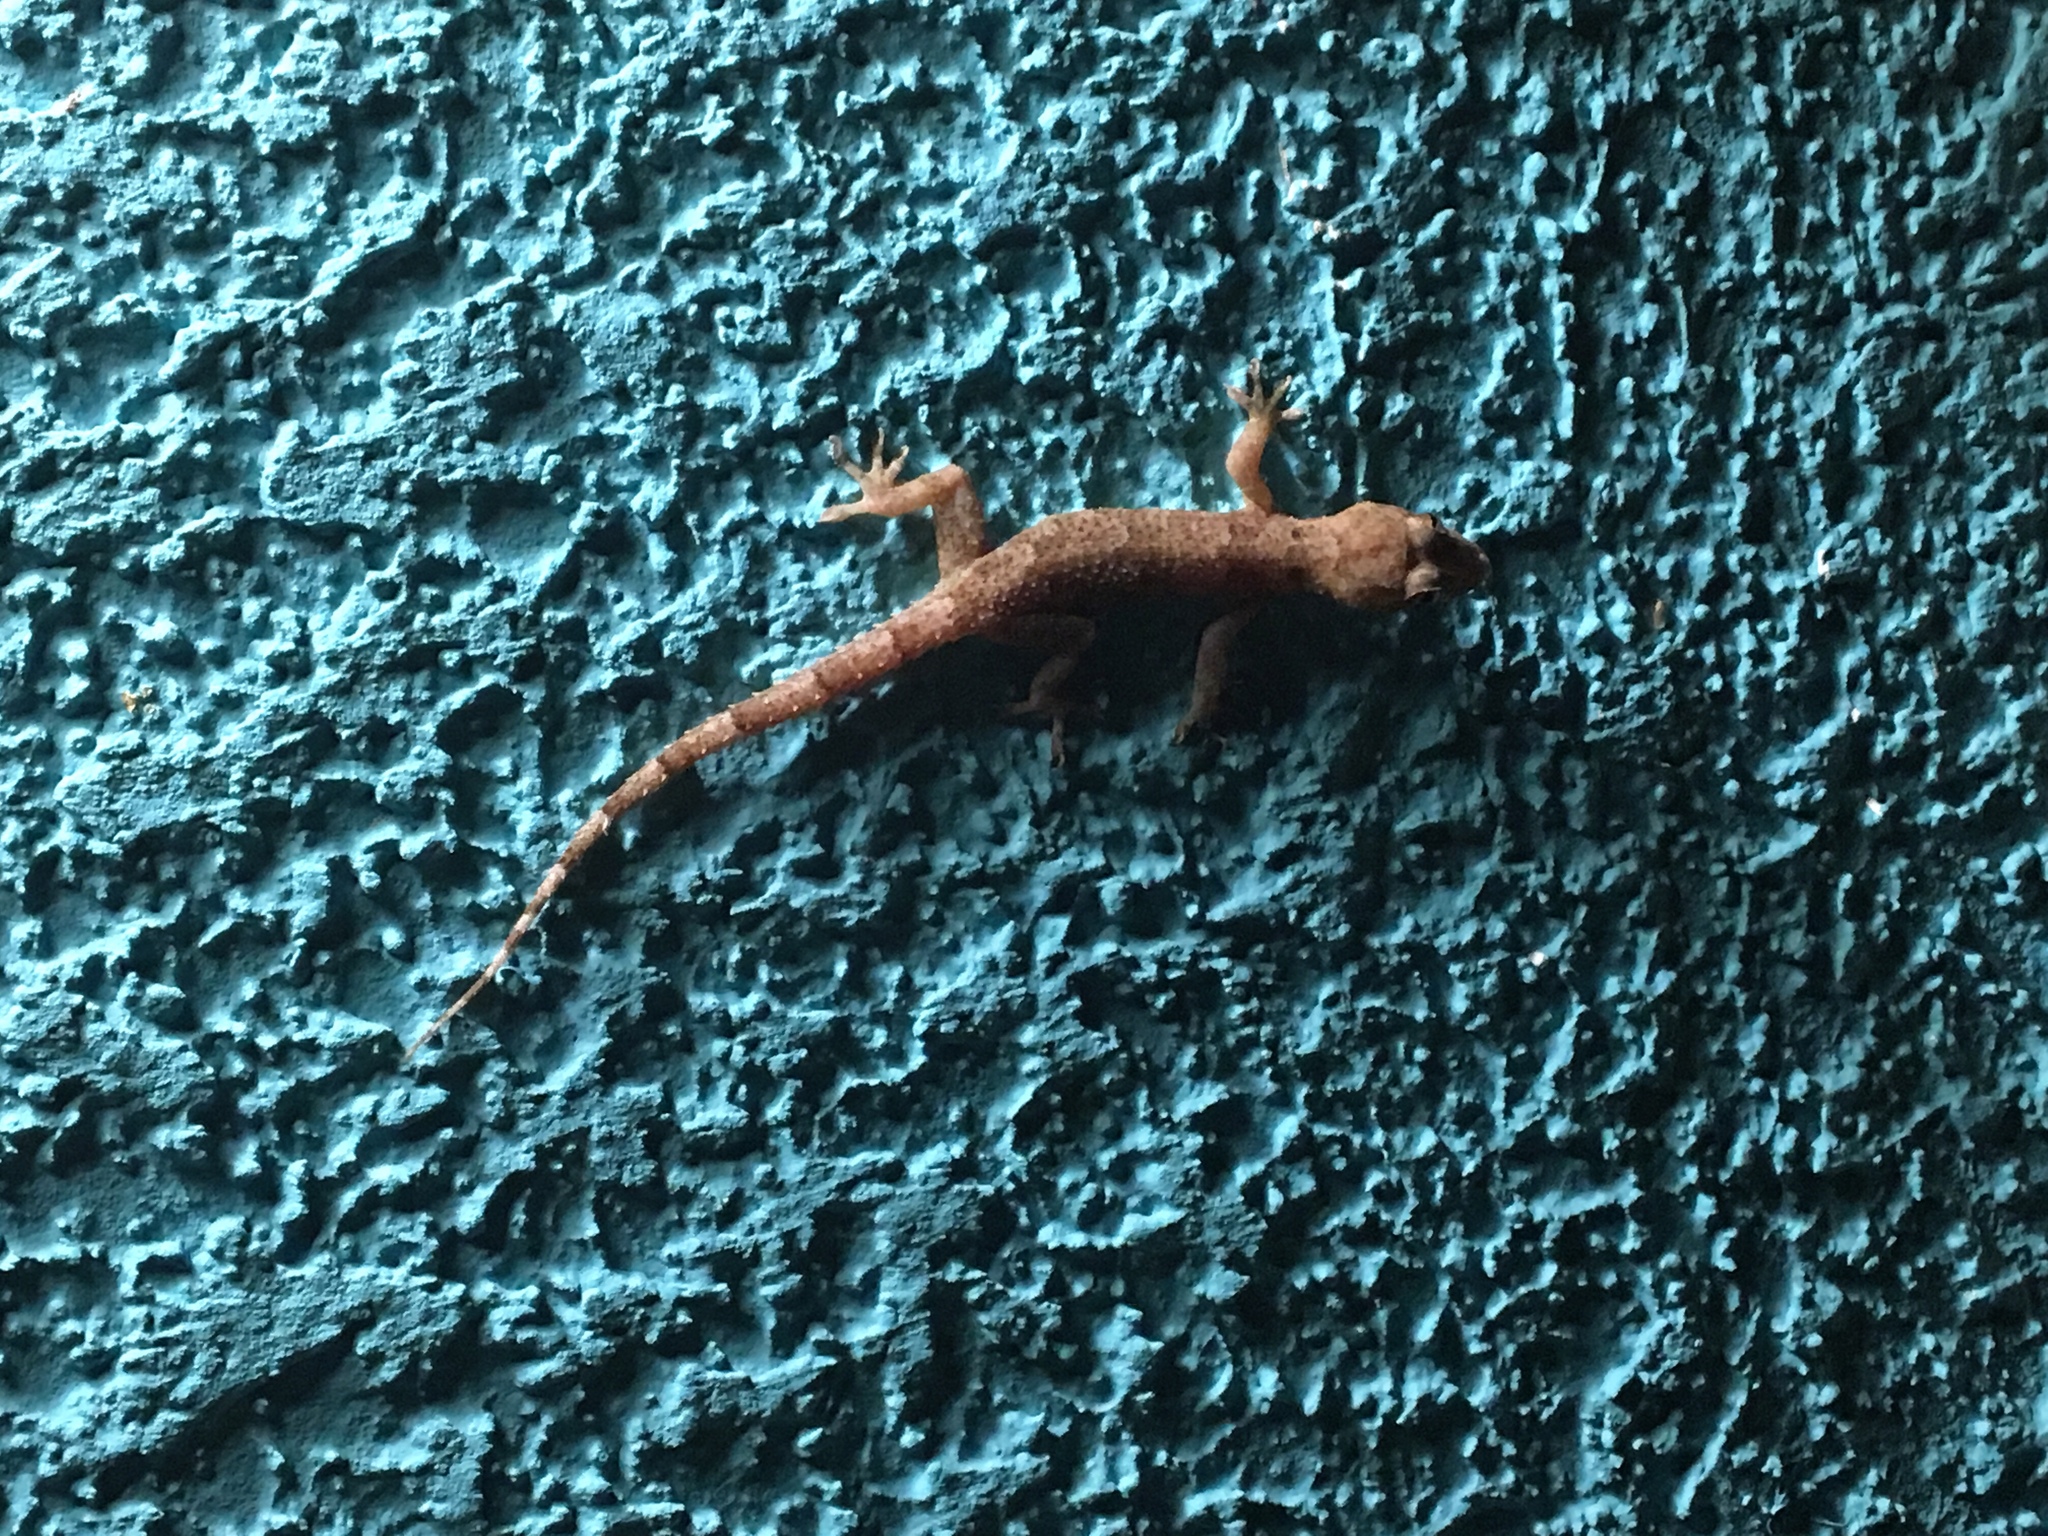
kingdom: Animalia
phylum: Chordata
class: Squamata
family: Gekkonidae
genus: Hemidactylus
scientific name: Hemidactylus mabouia
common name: House gecko
